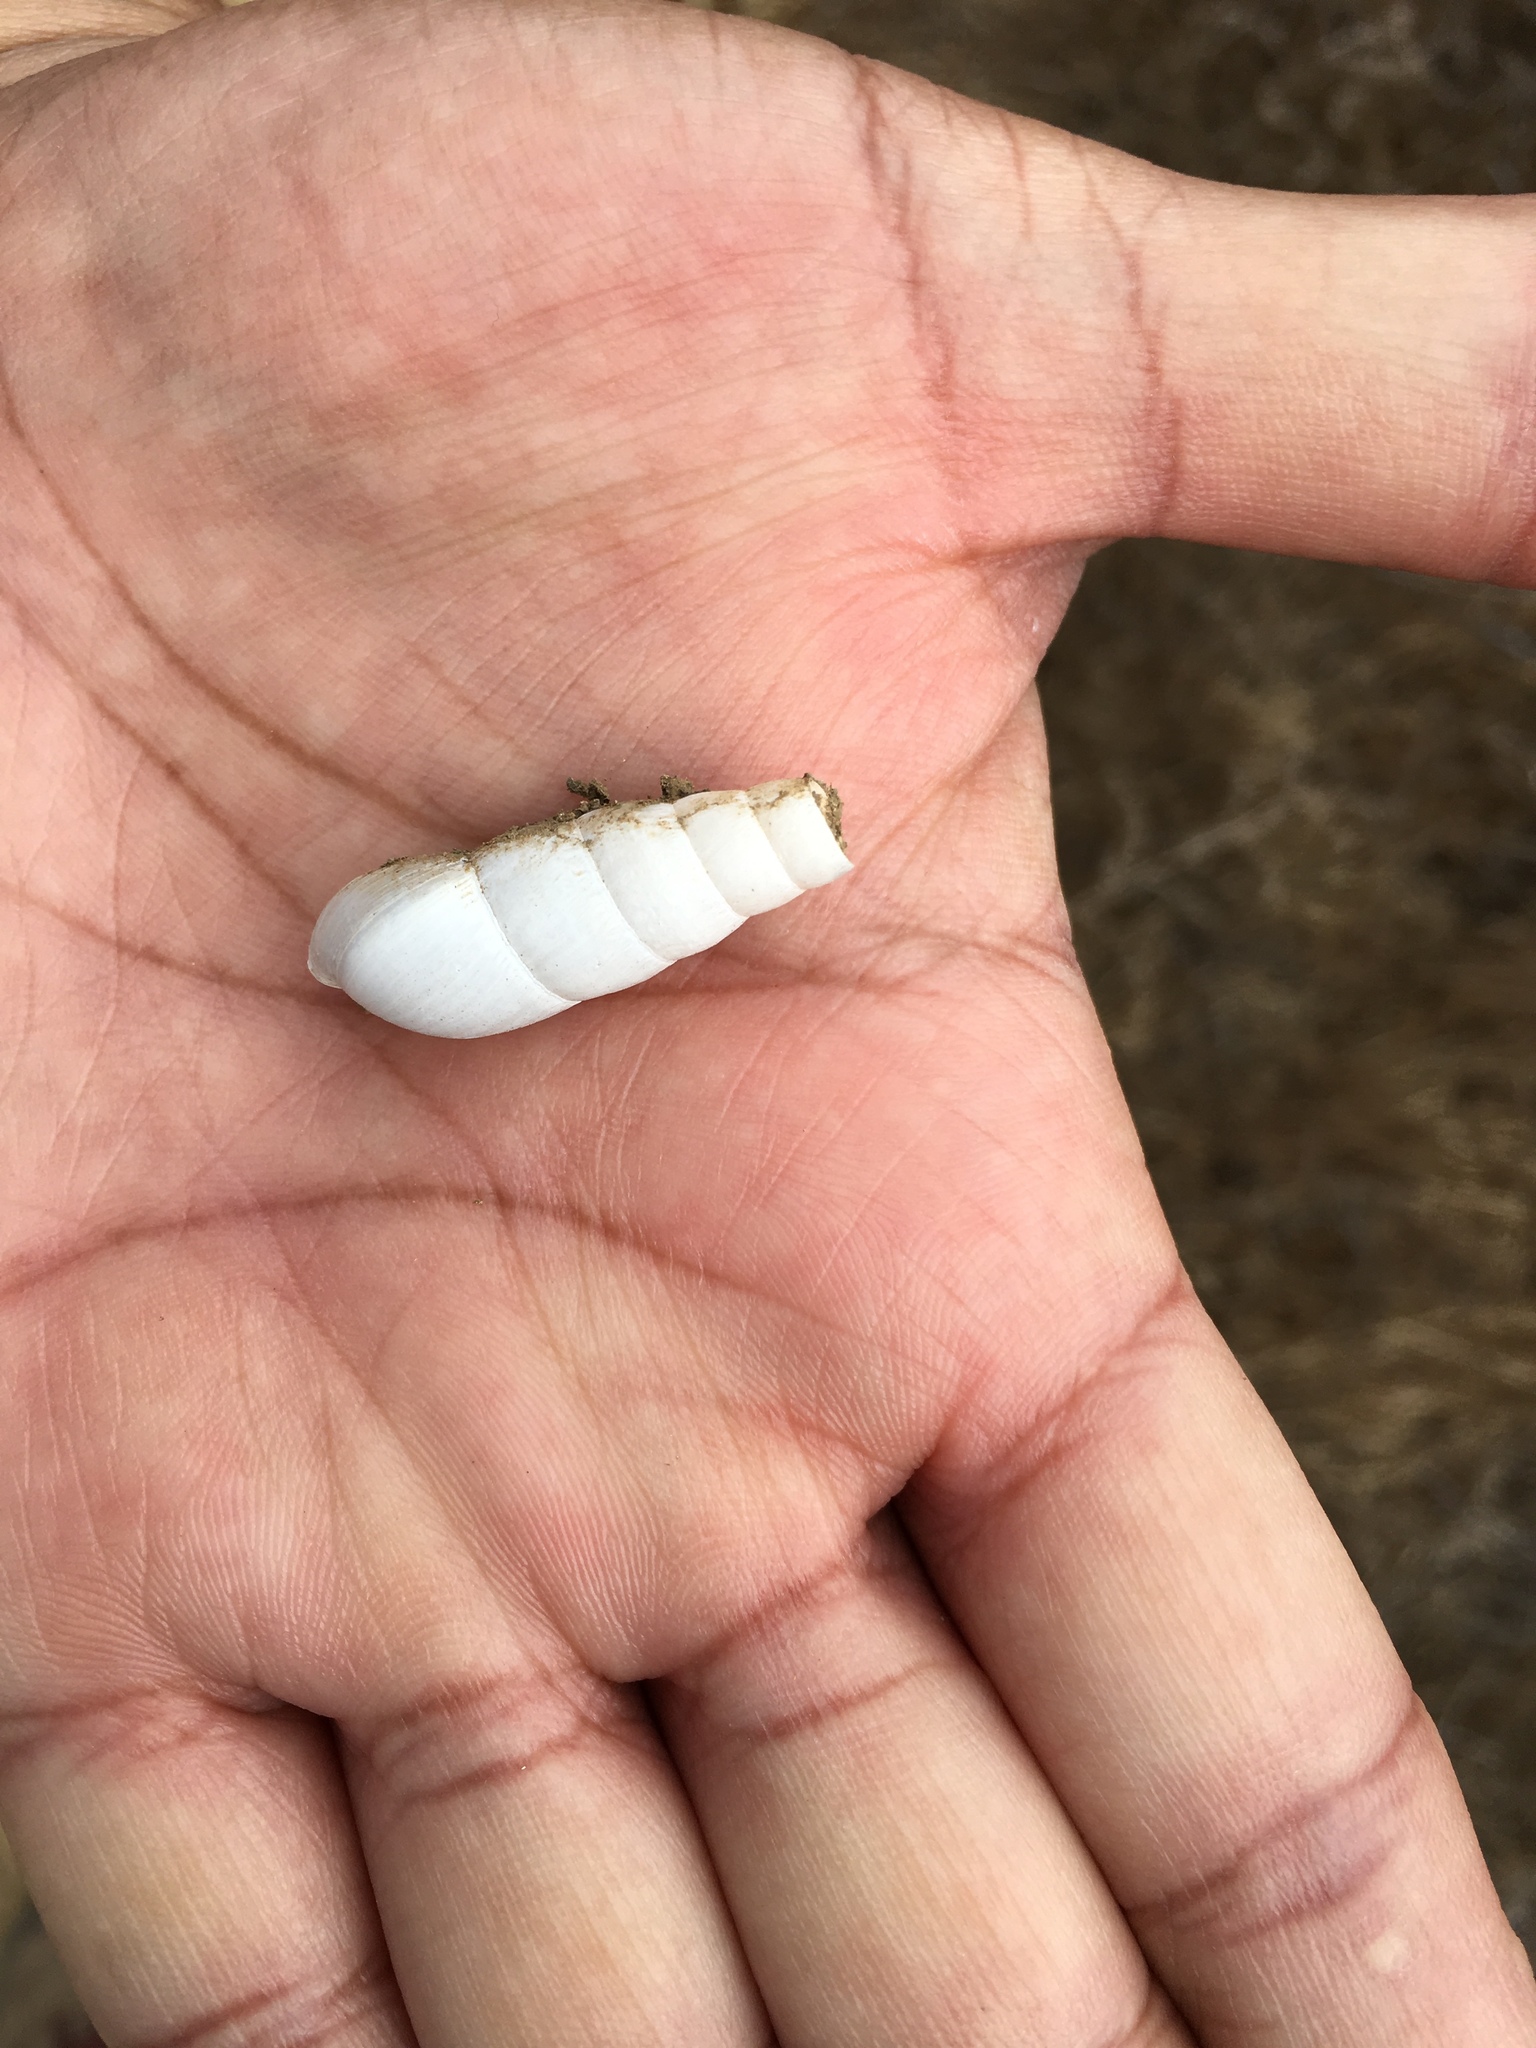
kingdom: Animalia
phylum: Mollusca
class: Gastropoda
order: Stylommatophora
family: Achatinidae
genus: Rumina
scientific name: Rumina decollata
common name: Decollate snail
